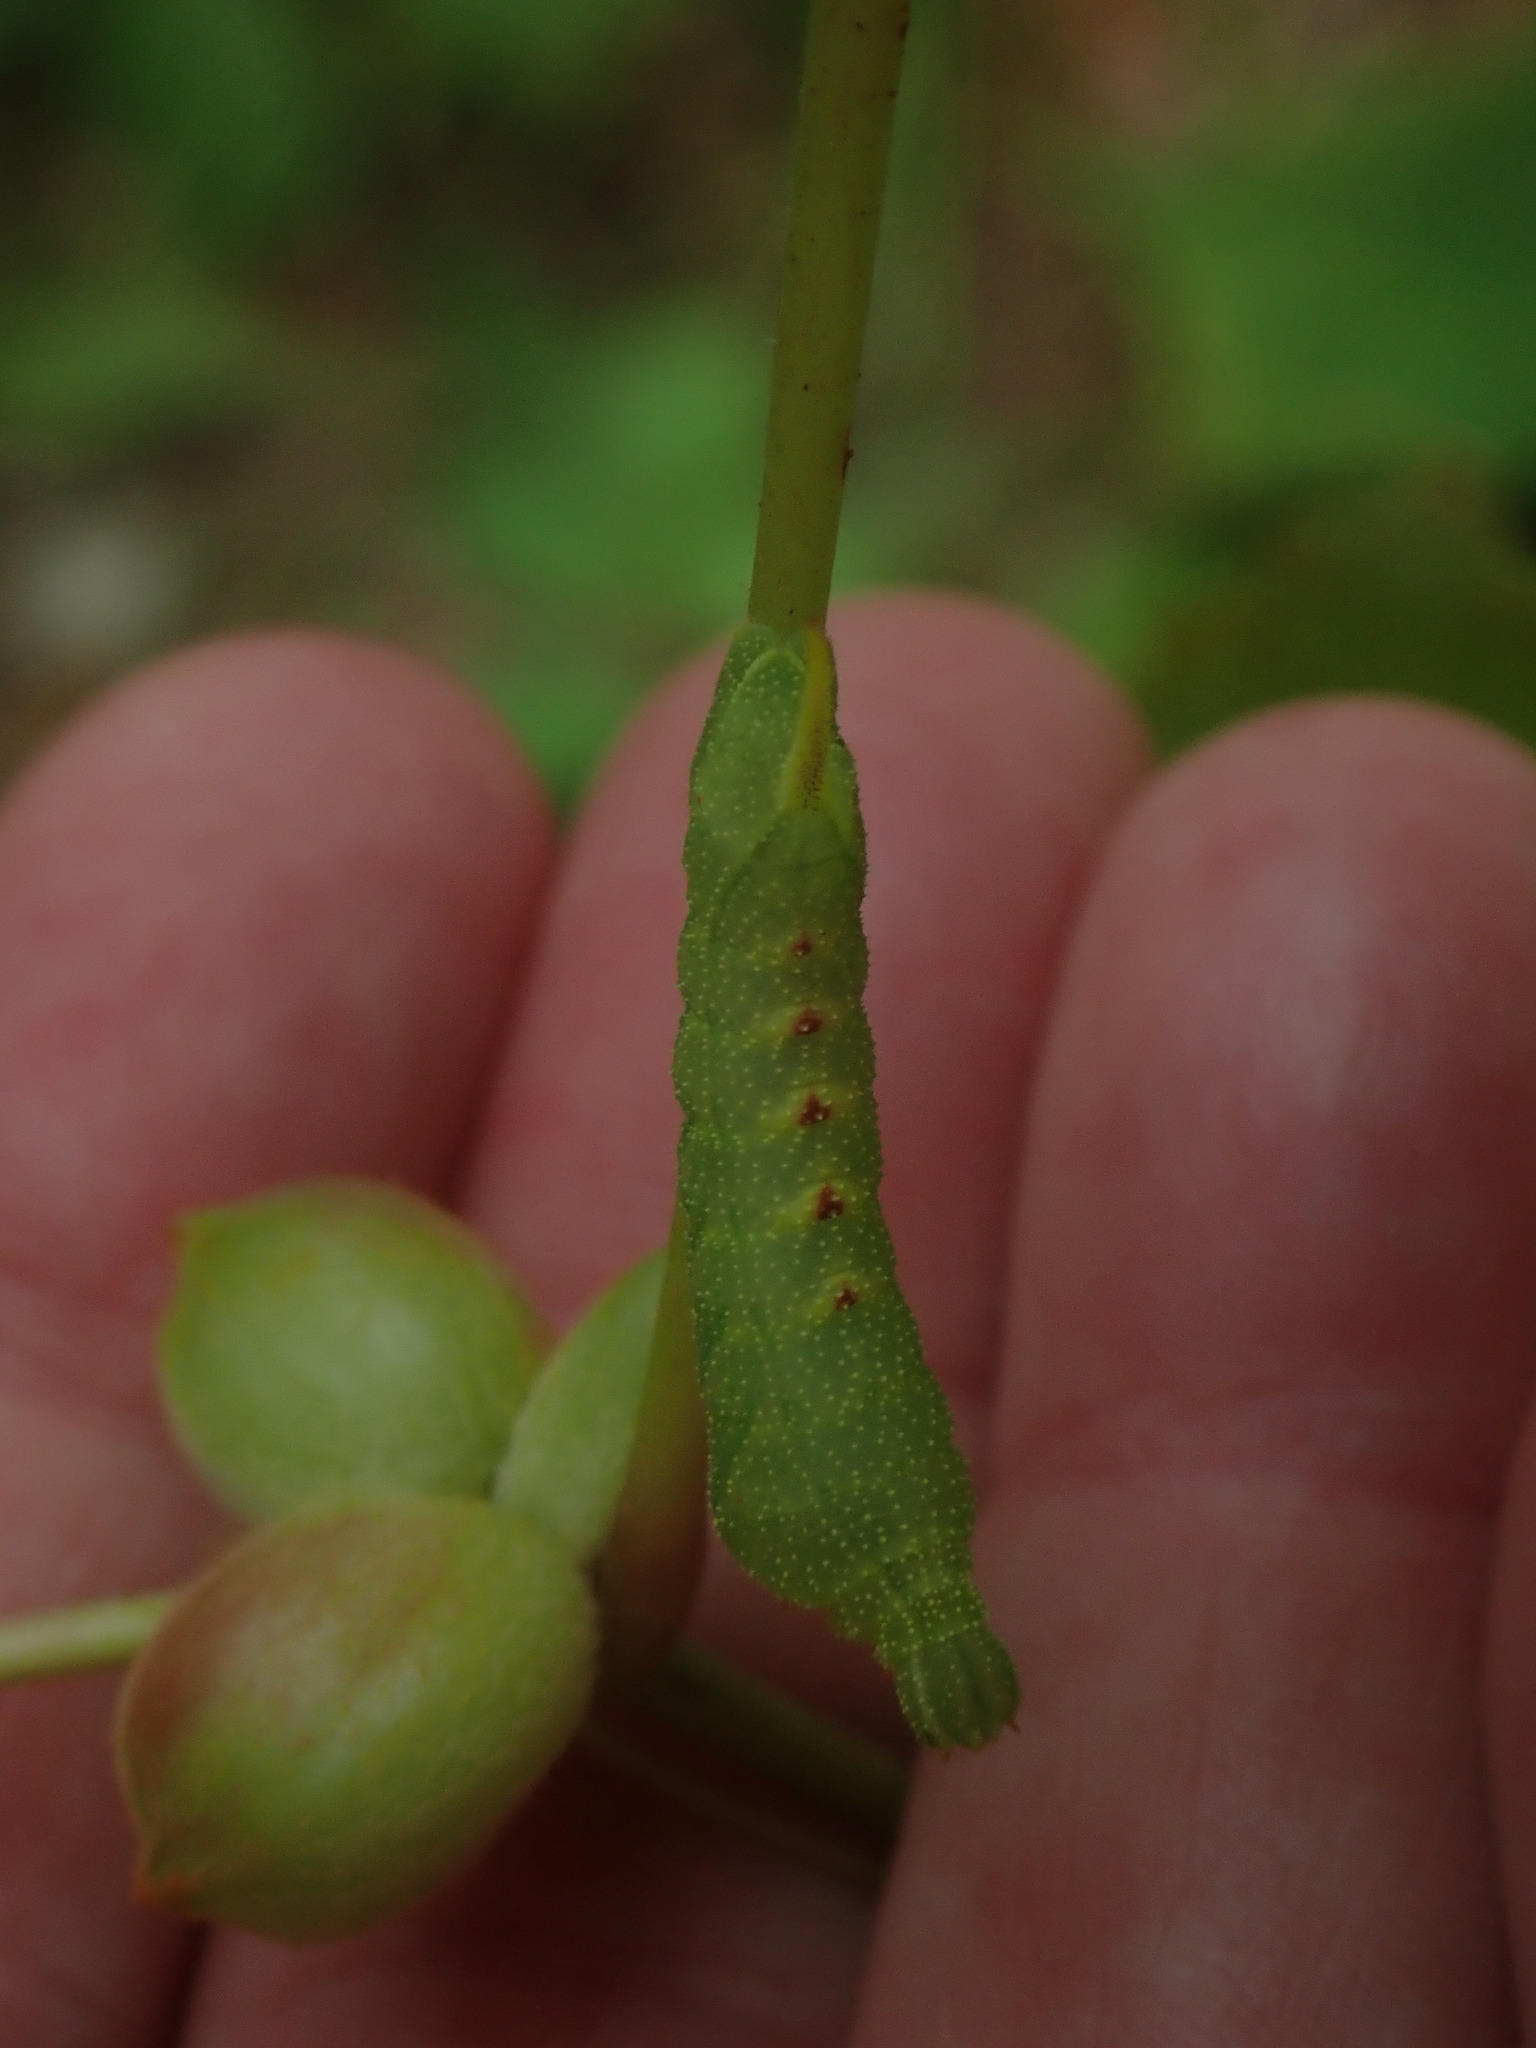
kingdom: Animalia
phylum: Arthropoda
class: Insecta
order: Lepidoptera
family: Sphingidae
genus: Darapsa
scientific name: Darapsa myron
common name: Hog sphinx
